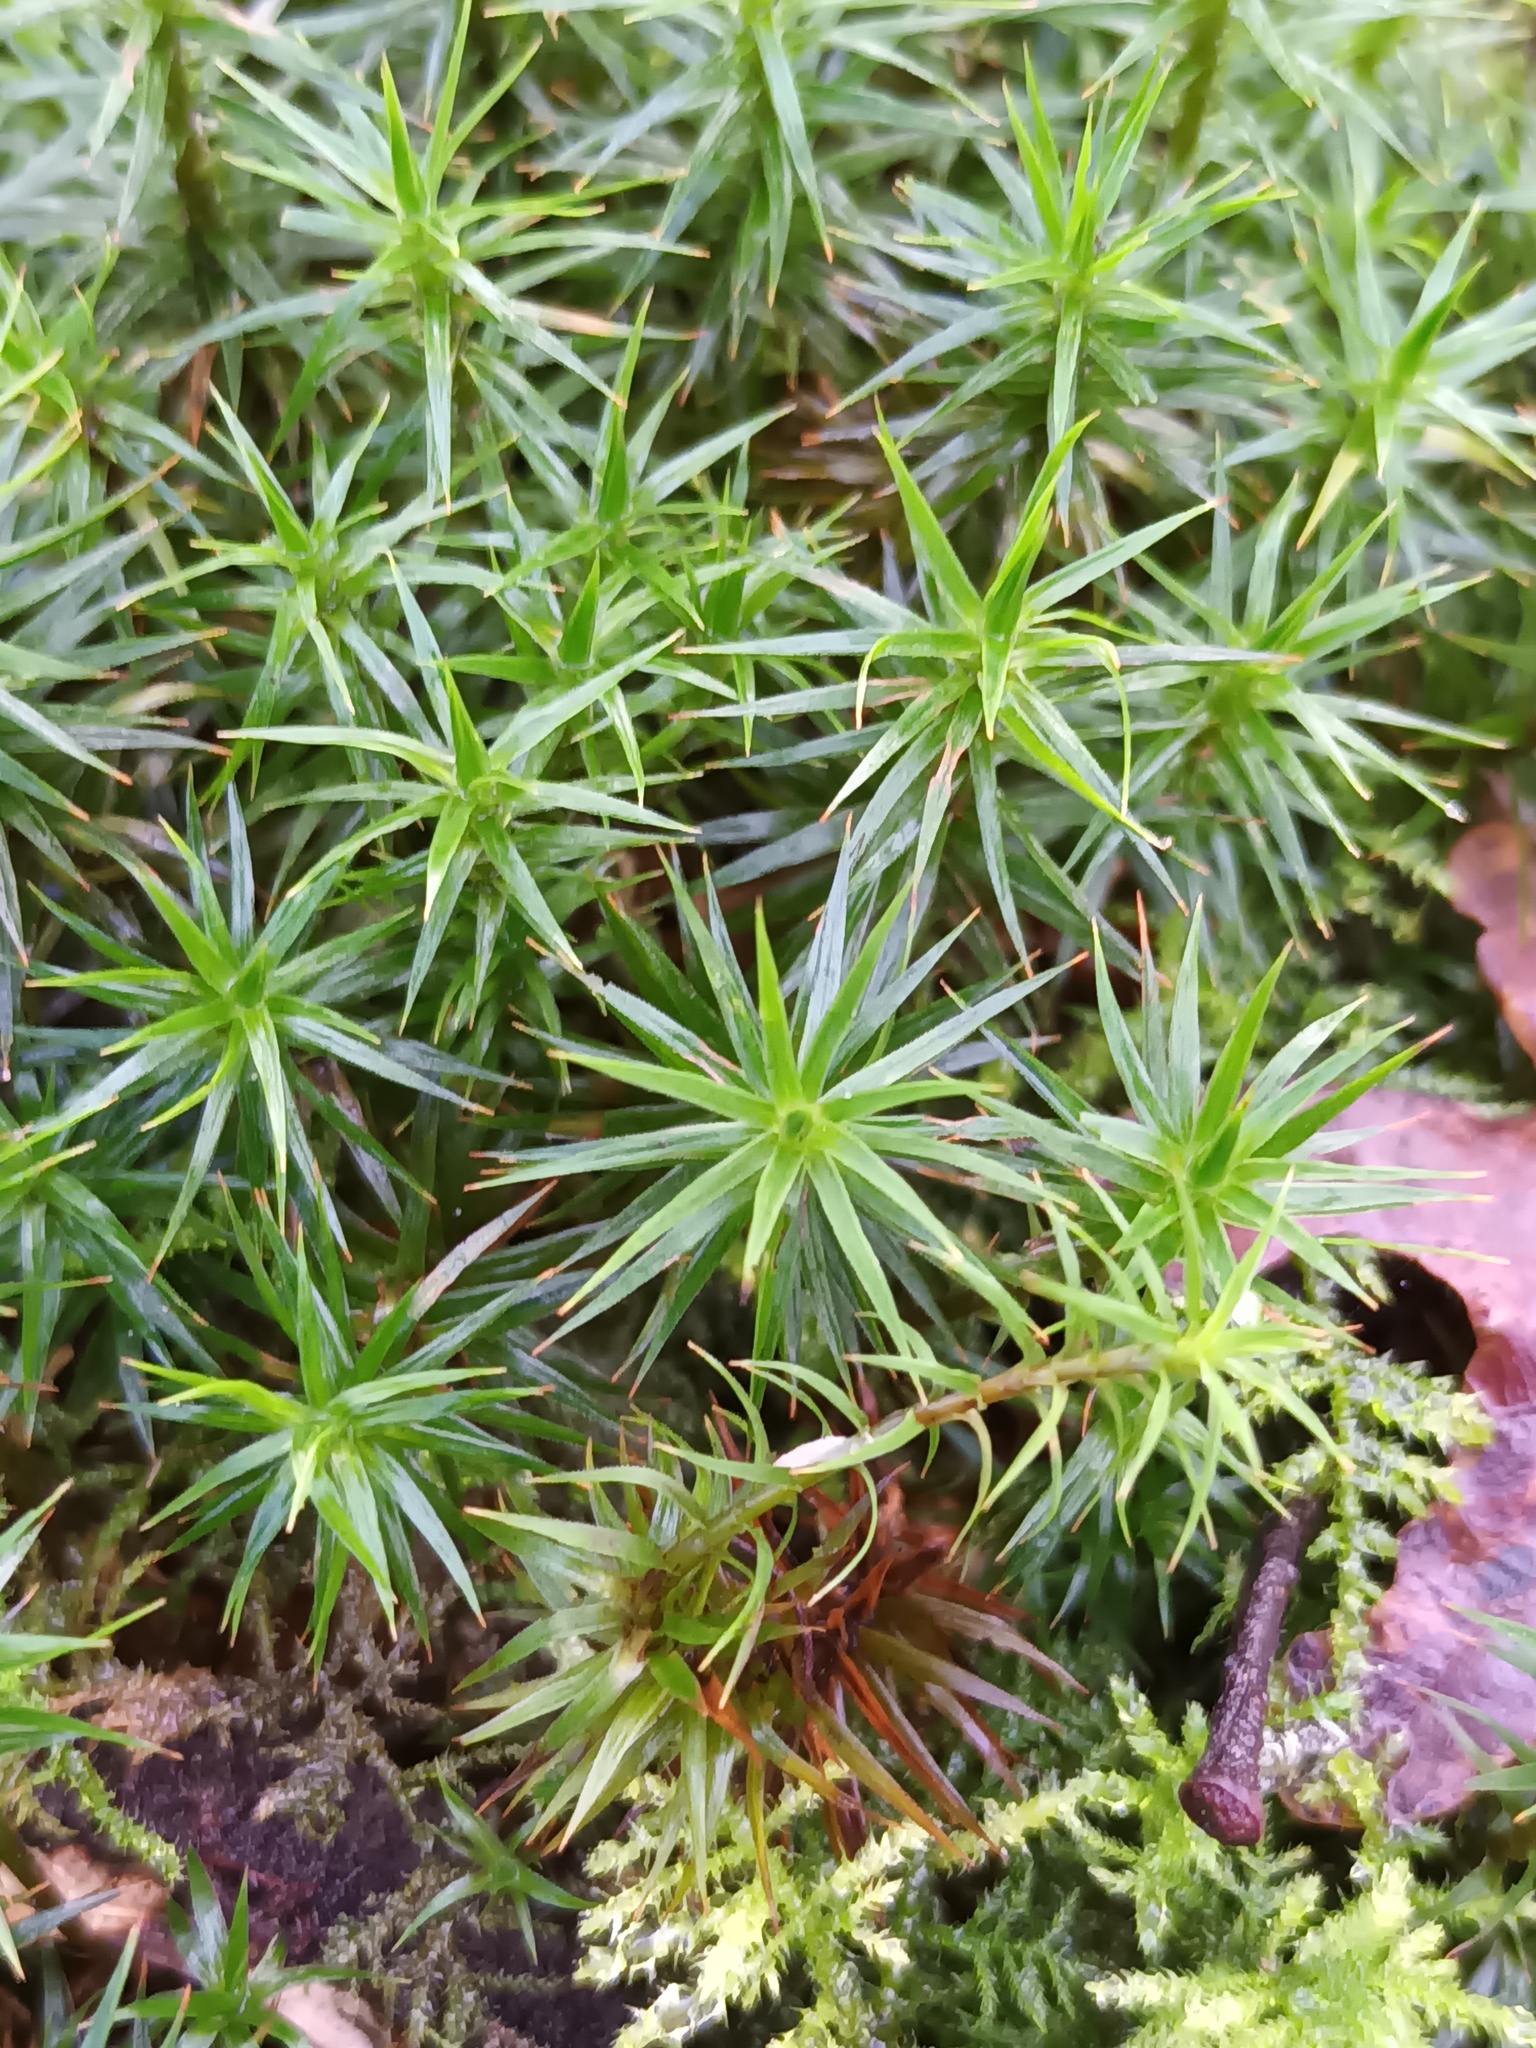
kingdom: Plantae
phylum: Bryophyta
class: Polytrichopsida
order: Polytrichales
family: Polytrichaceae
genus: Polytrichum
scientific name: Polytrichum formosum
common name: Bank haircap moss
